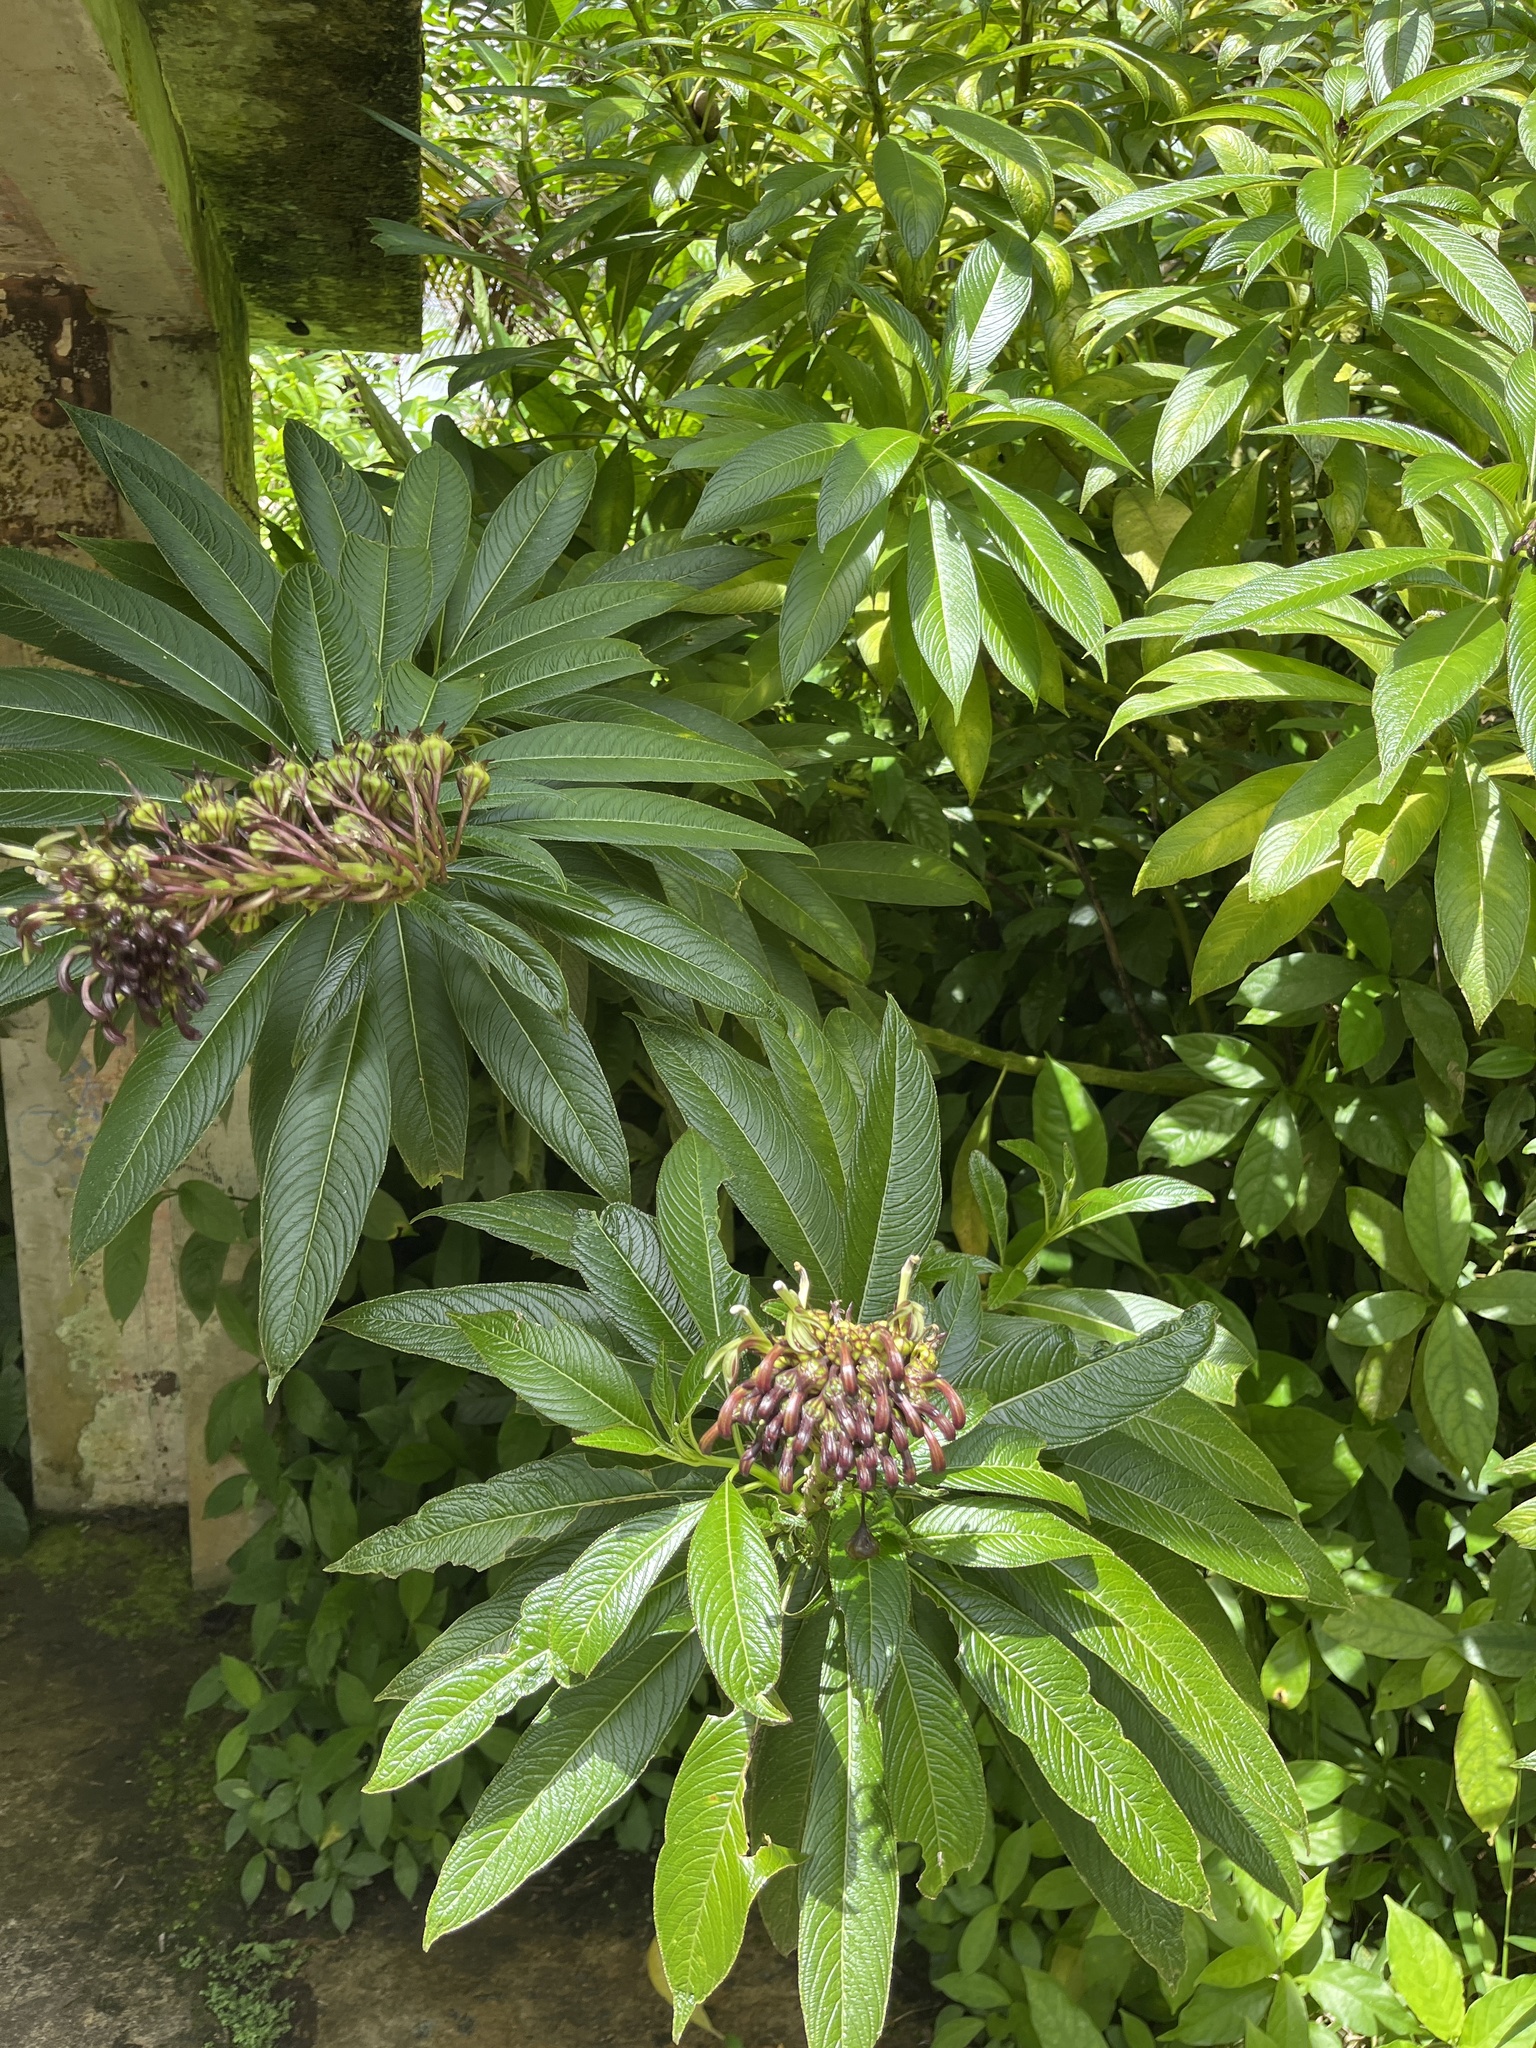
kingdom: Plantae
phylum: Tracheophyta
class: Magnoliopsida
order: Asterales
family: Campanulaceae
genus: Lobelia
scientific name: Lobelia portoricensis
